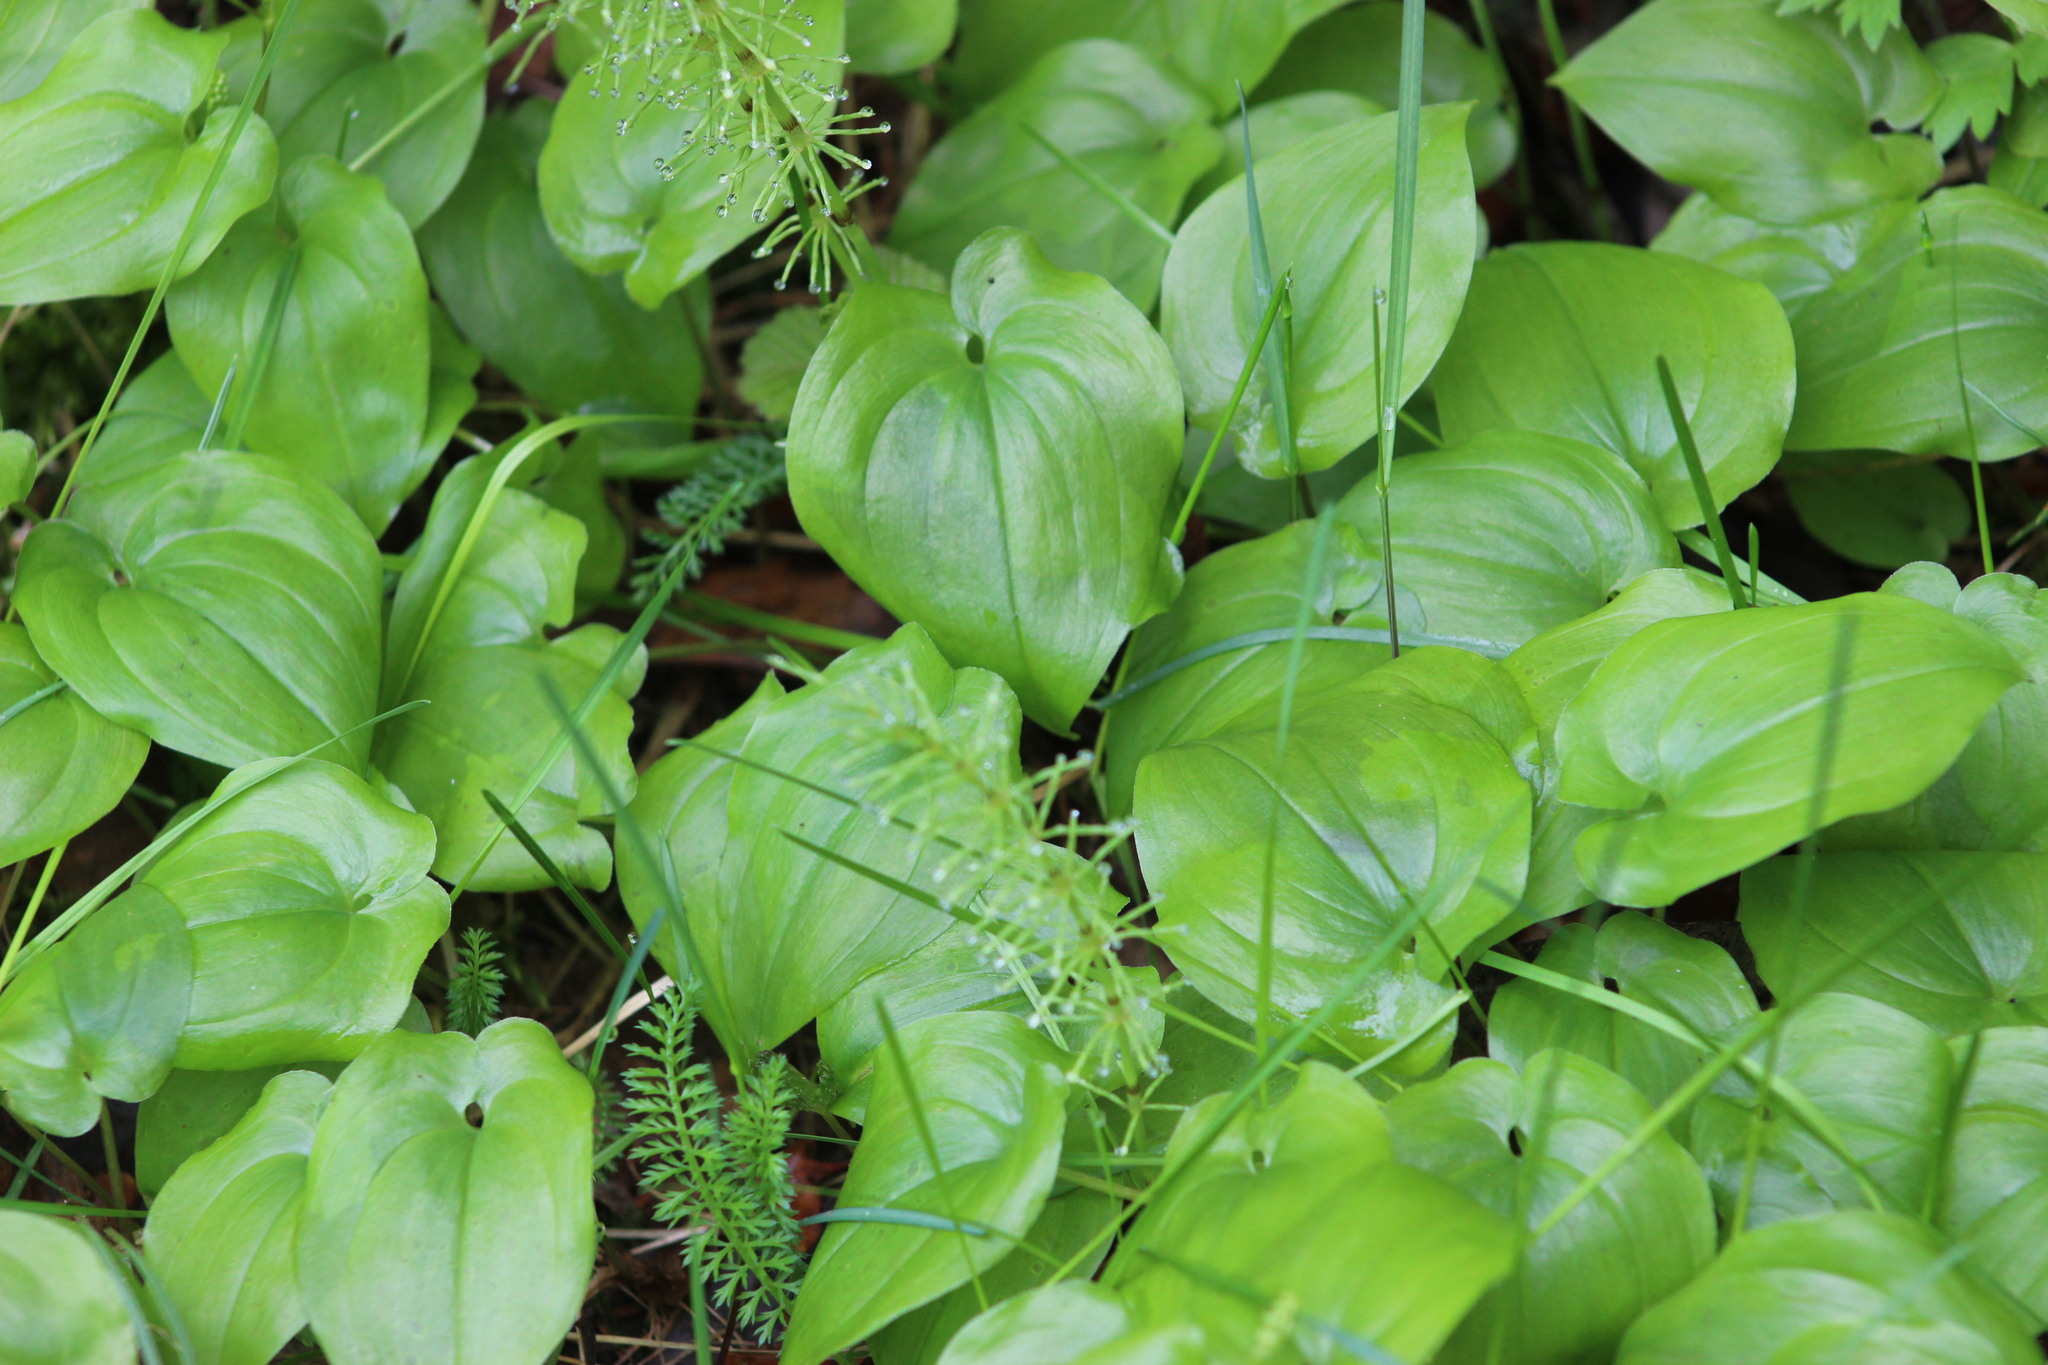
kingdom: Plantae
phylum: Tracheophyta
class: Liliopsida
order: Asparagales
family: Asparagaceae
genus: Maianthemum
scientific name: Maianthemum bifolium
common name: May lily
